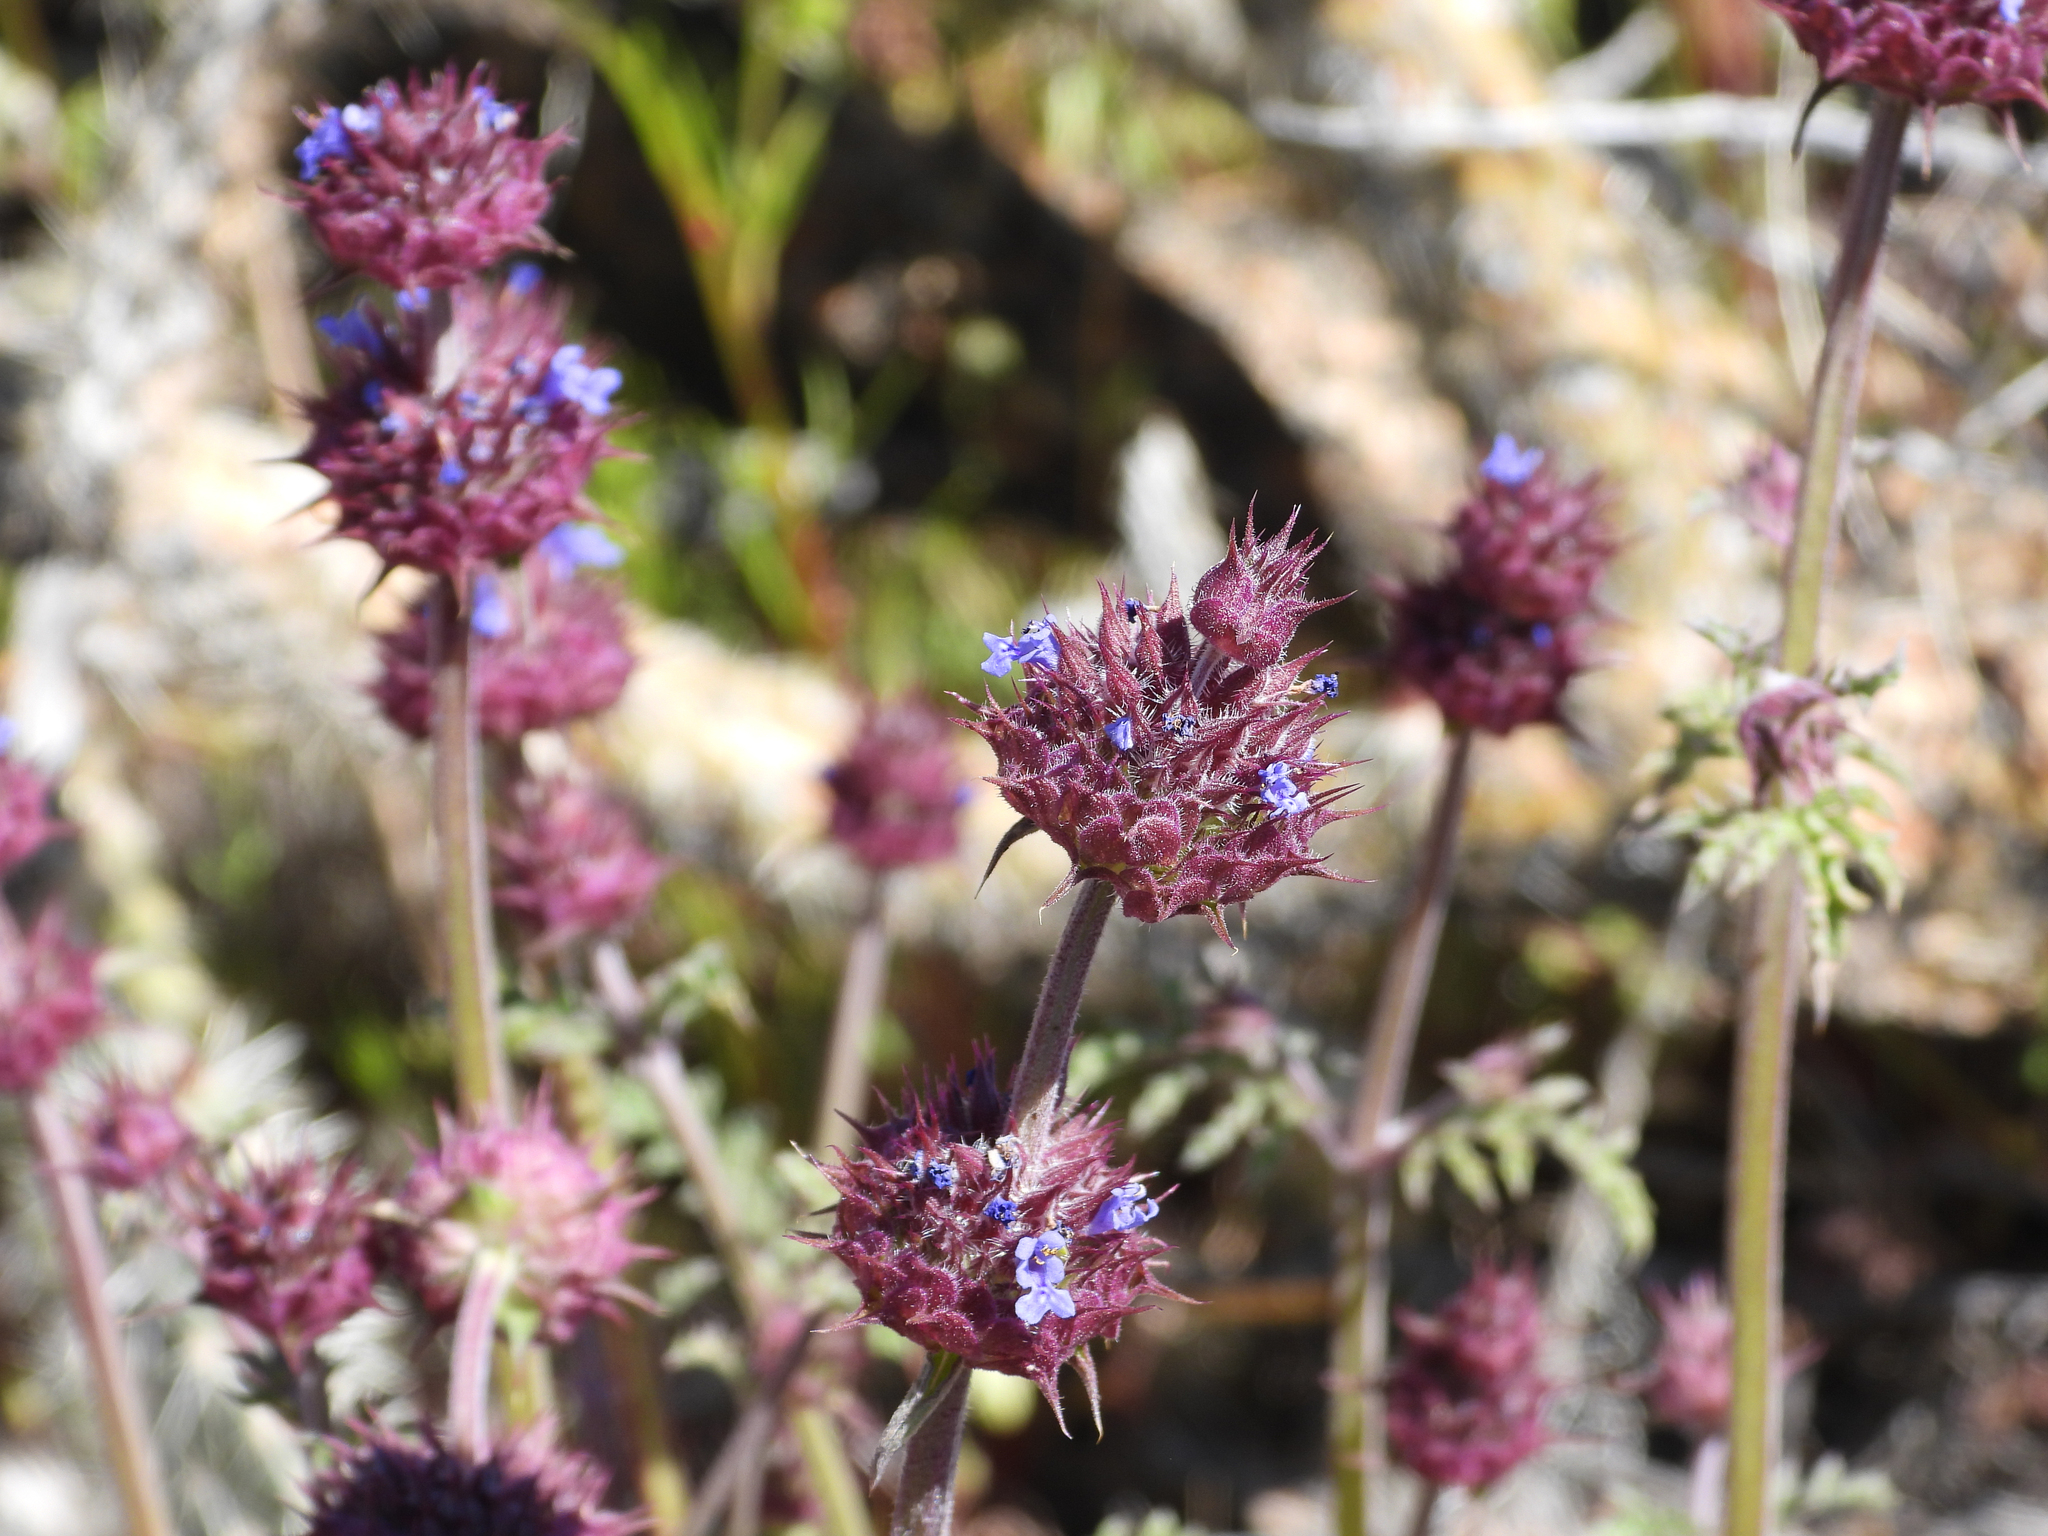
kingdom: Plantae
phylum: Tracheophyta
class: Magnoliopsida
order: Lamiales
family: Lamiaceae
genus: Salvia
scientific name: Salvia columbariae
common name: Chia
